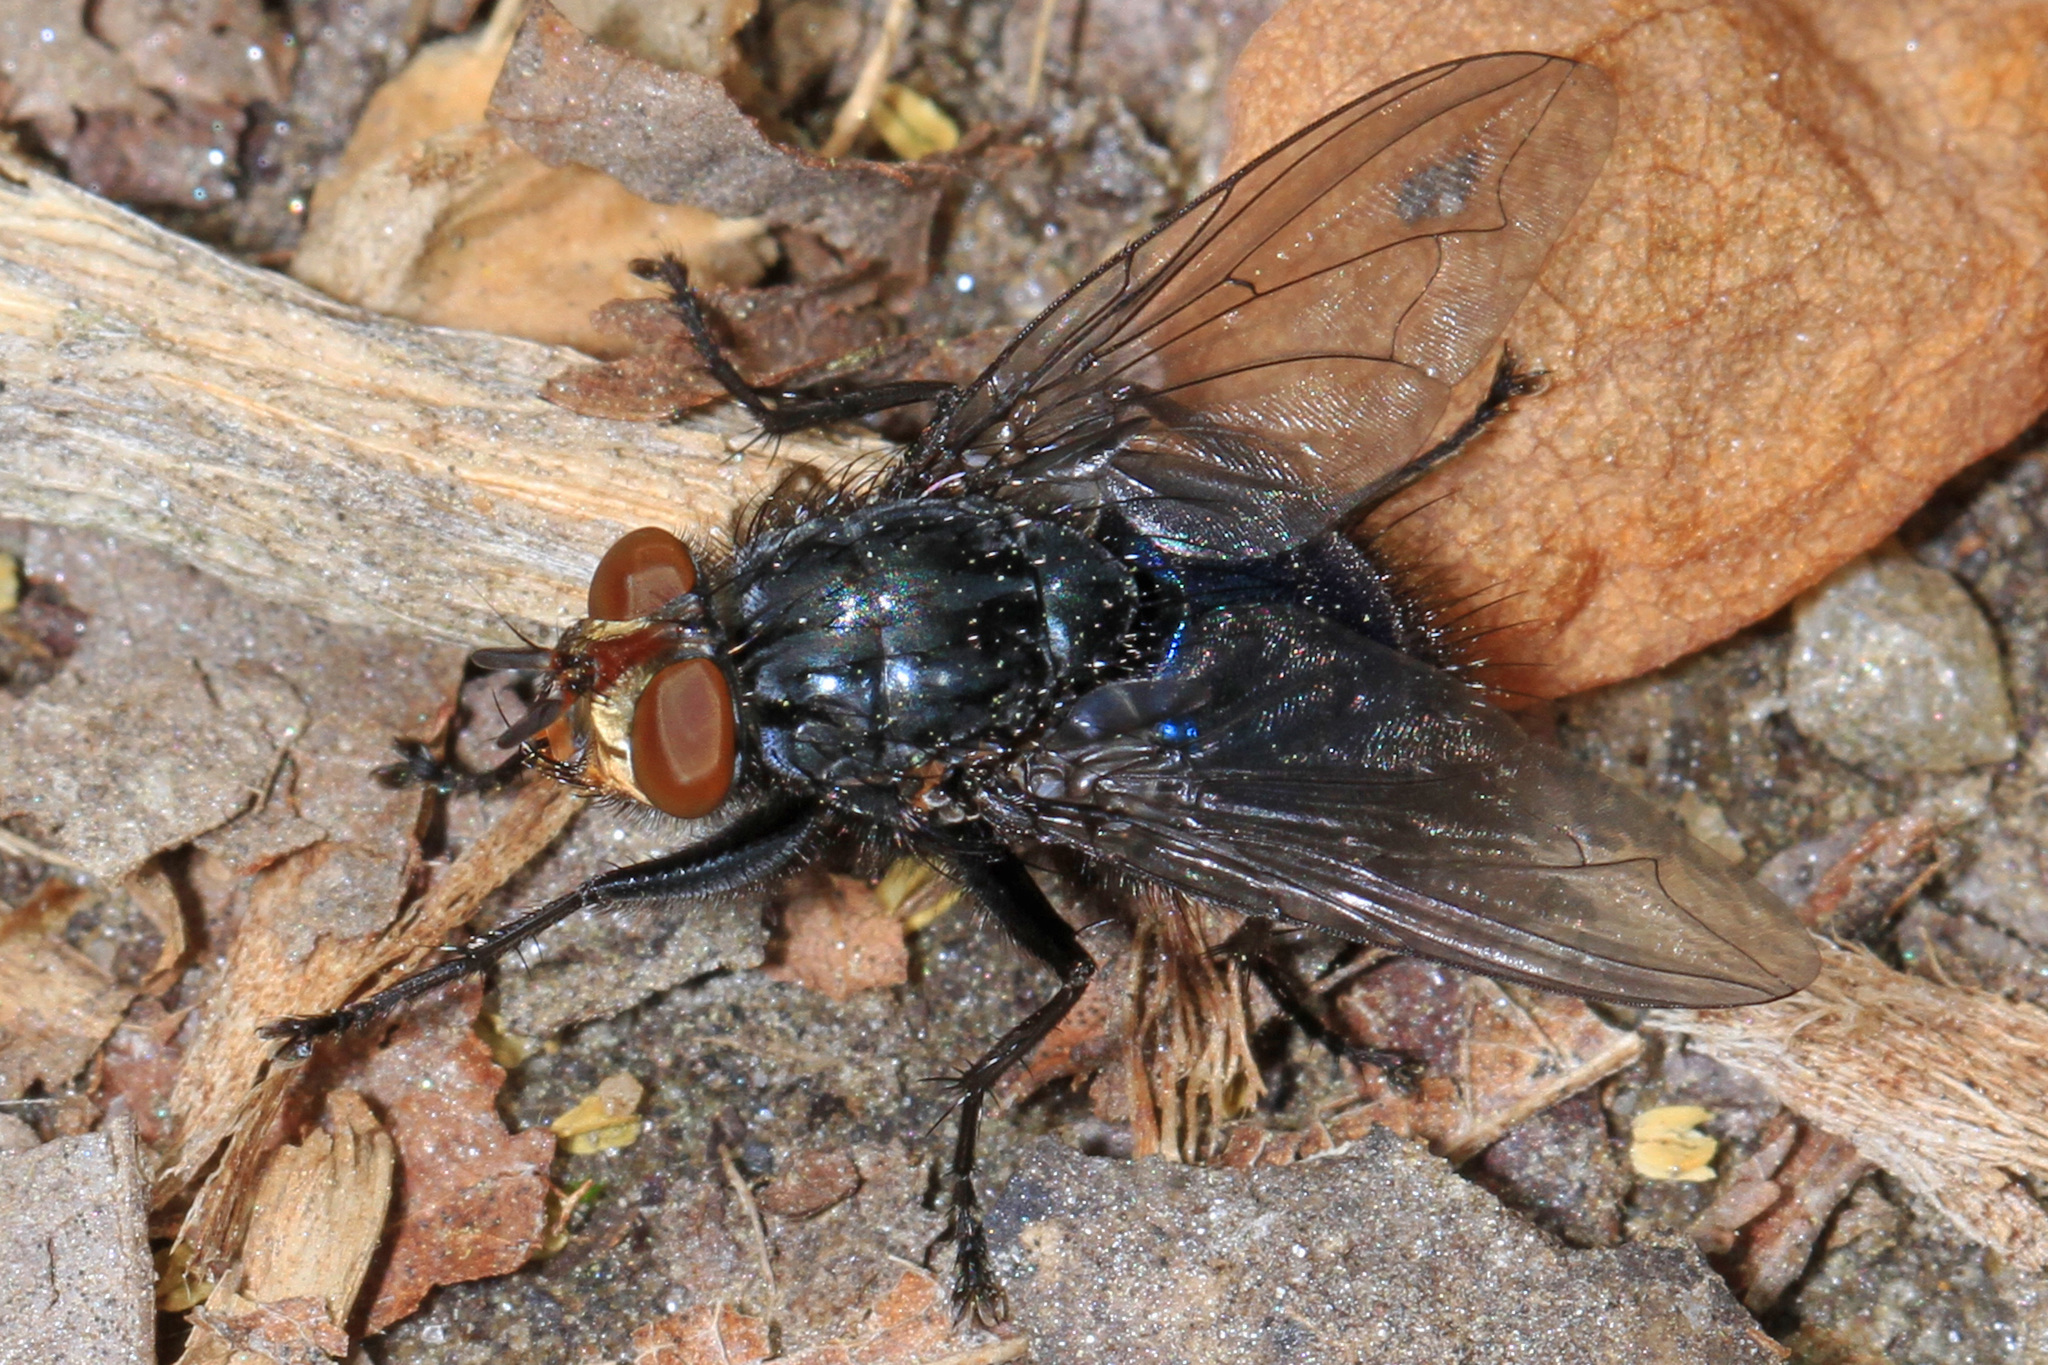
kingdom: Animalia
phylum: Arthropoda
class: Insecta
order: Diptera
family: Calliphoridae
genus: Cynomya
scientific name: Cynomya cadaverina
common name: Shiny blue bottle fly
